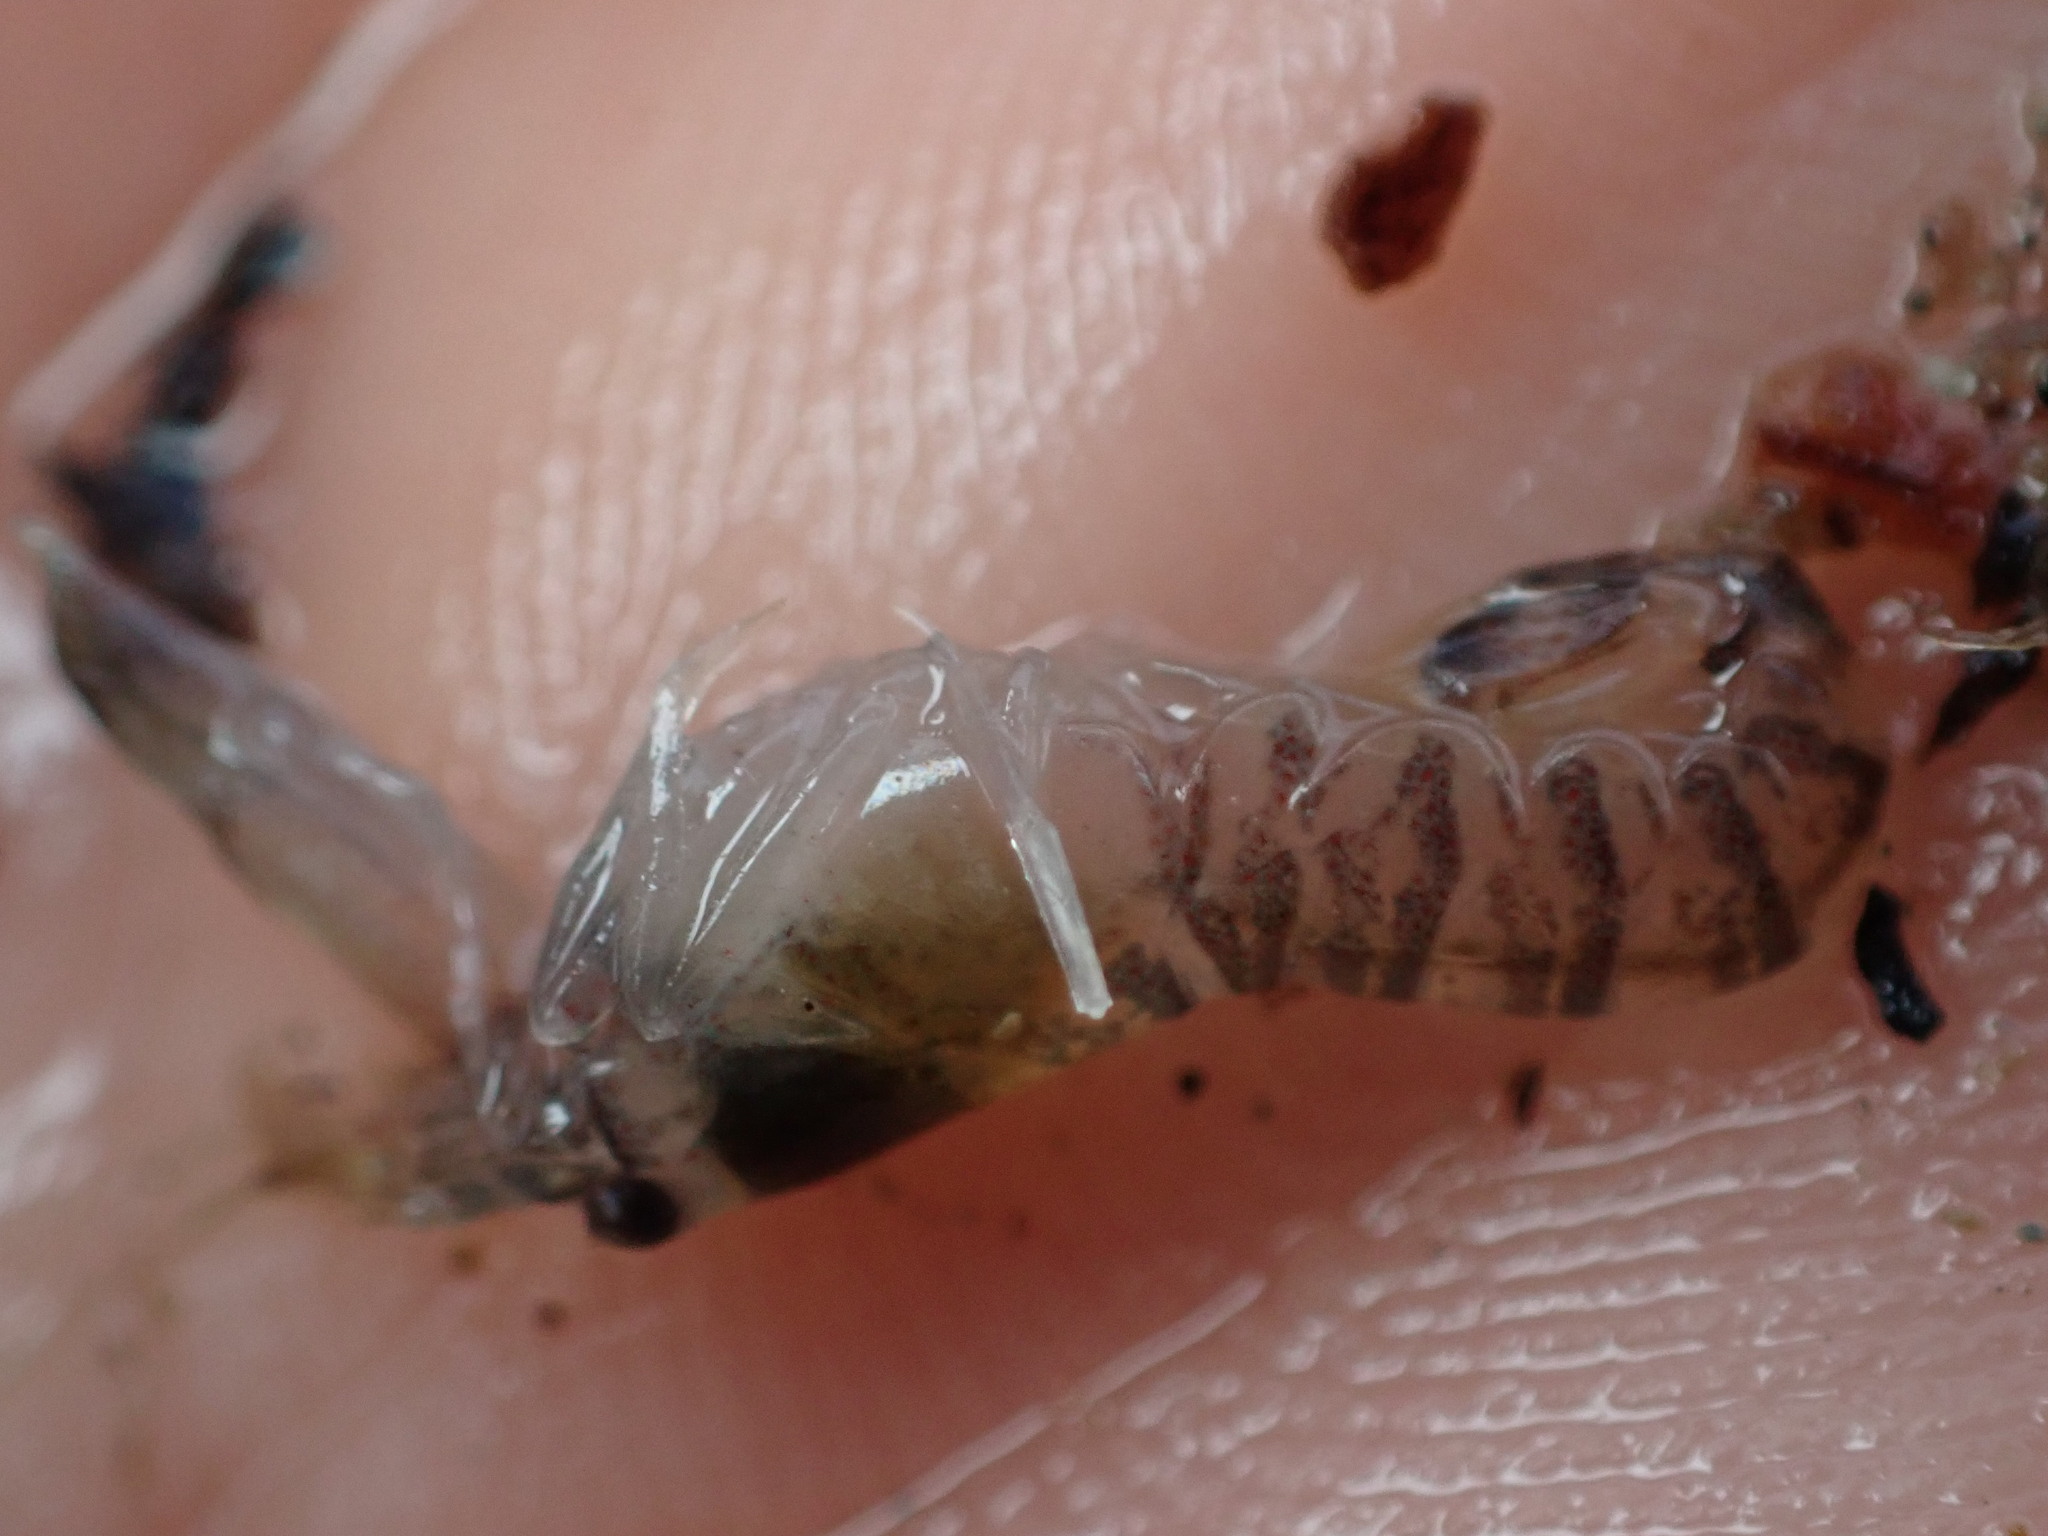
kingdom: Animalia
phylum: Arthropoda
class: Malacostraca
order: Decapoda
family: Alpheidae
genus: Alpheus
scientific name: Alpheus richardsoni
